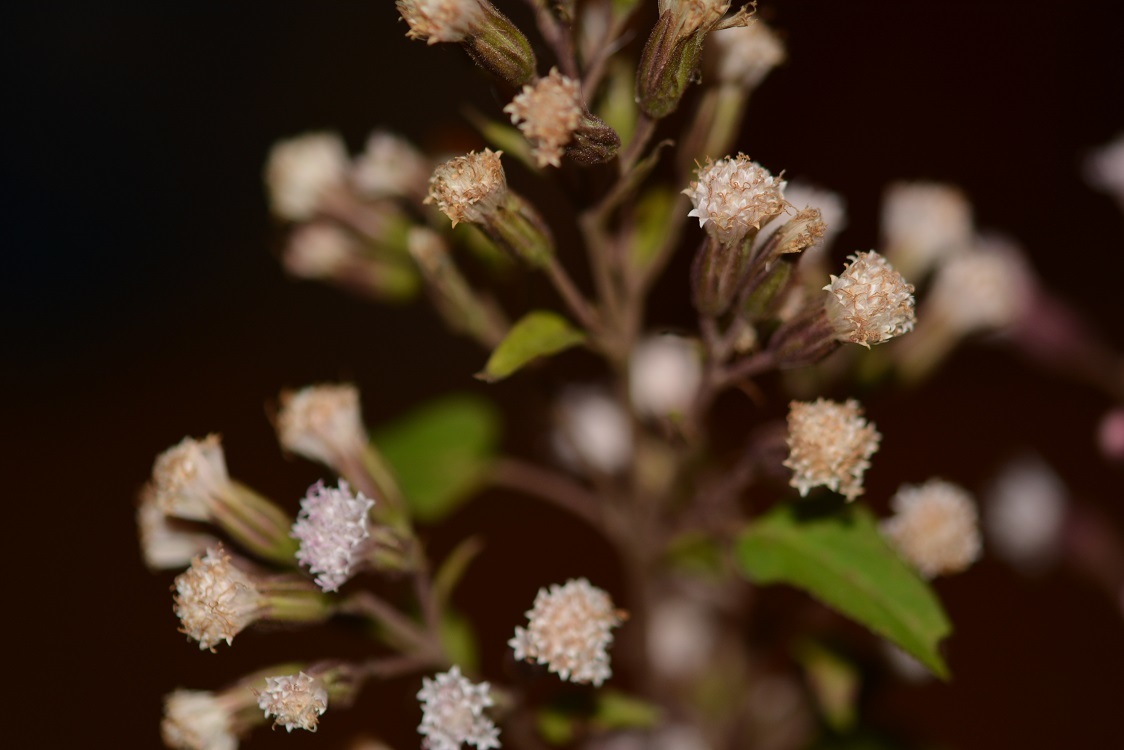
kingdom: Plantae
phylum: Tracheophyta
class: Magnoliopsida
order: Asterales
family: Asteraceae
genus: Ageratina
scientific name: Ageratina mairetiana
